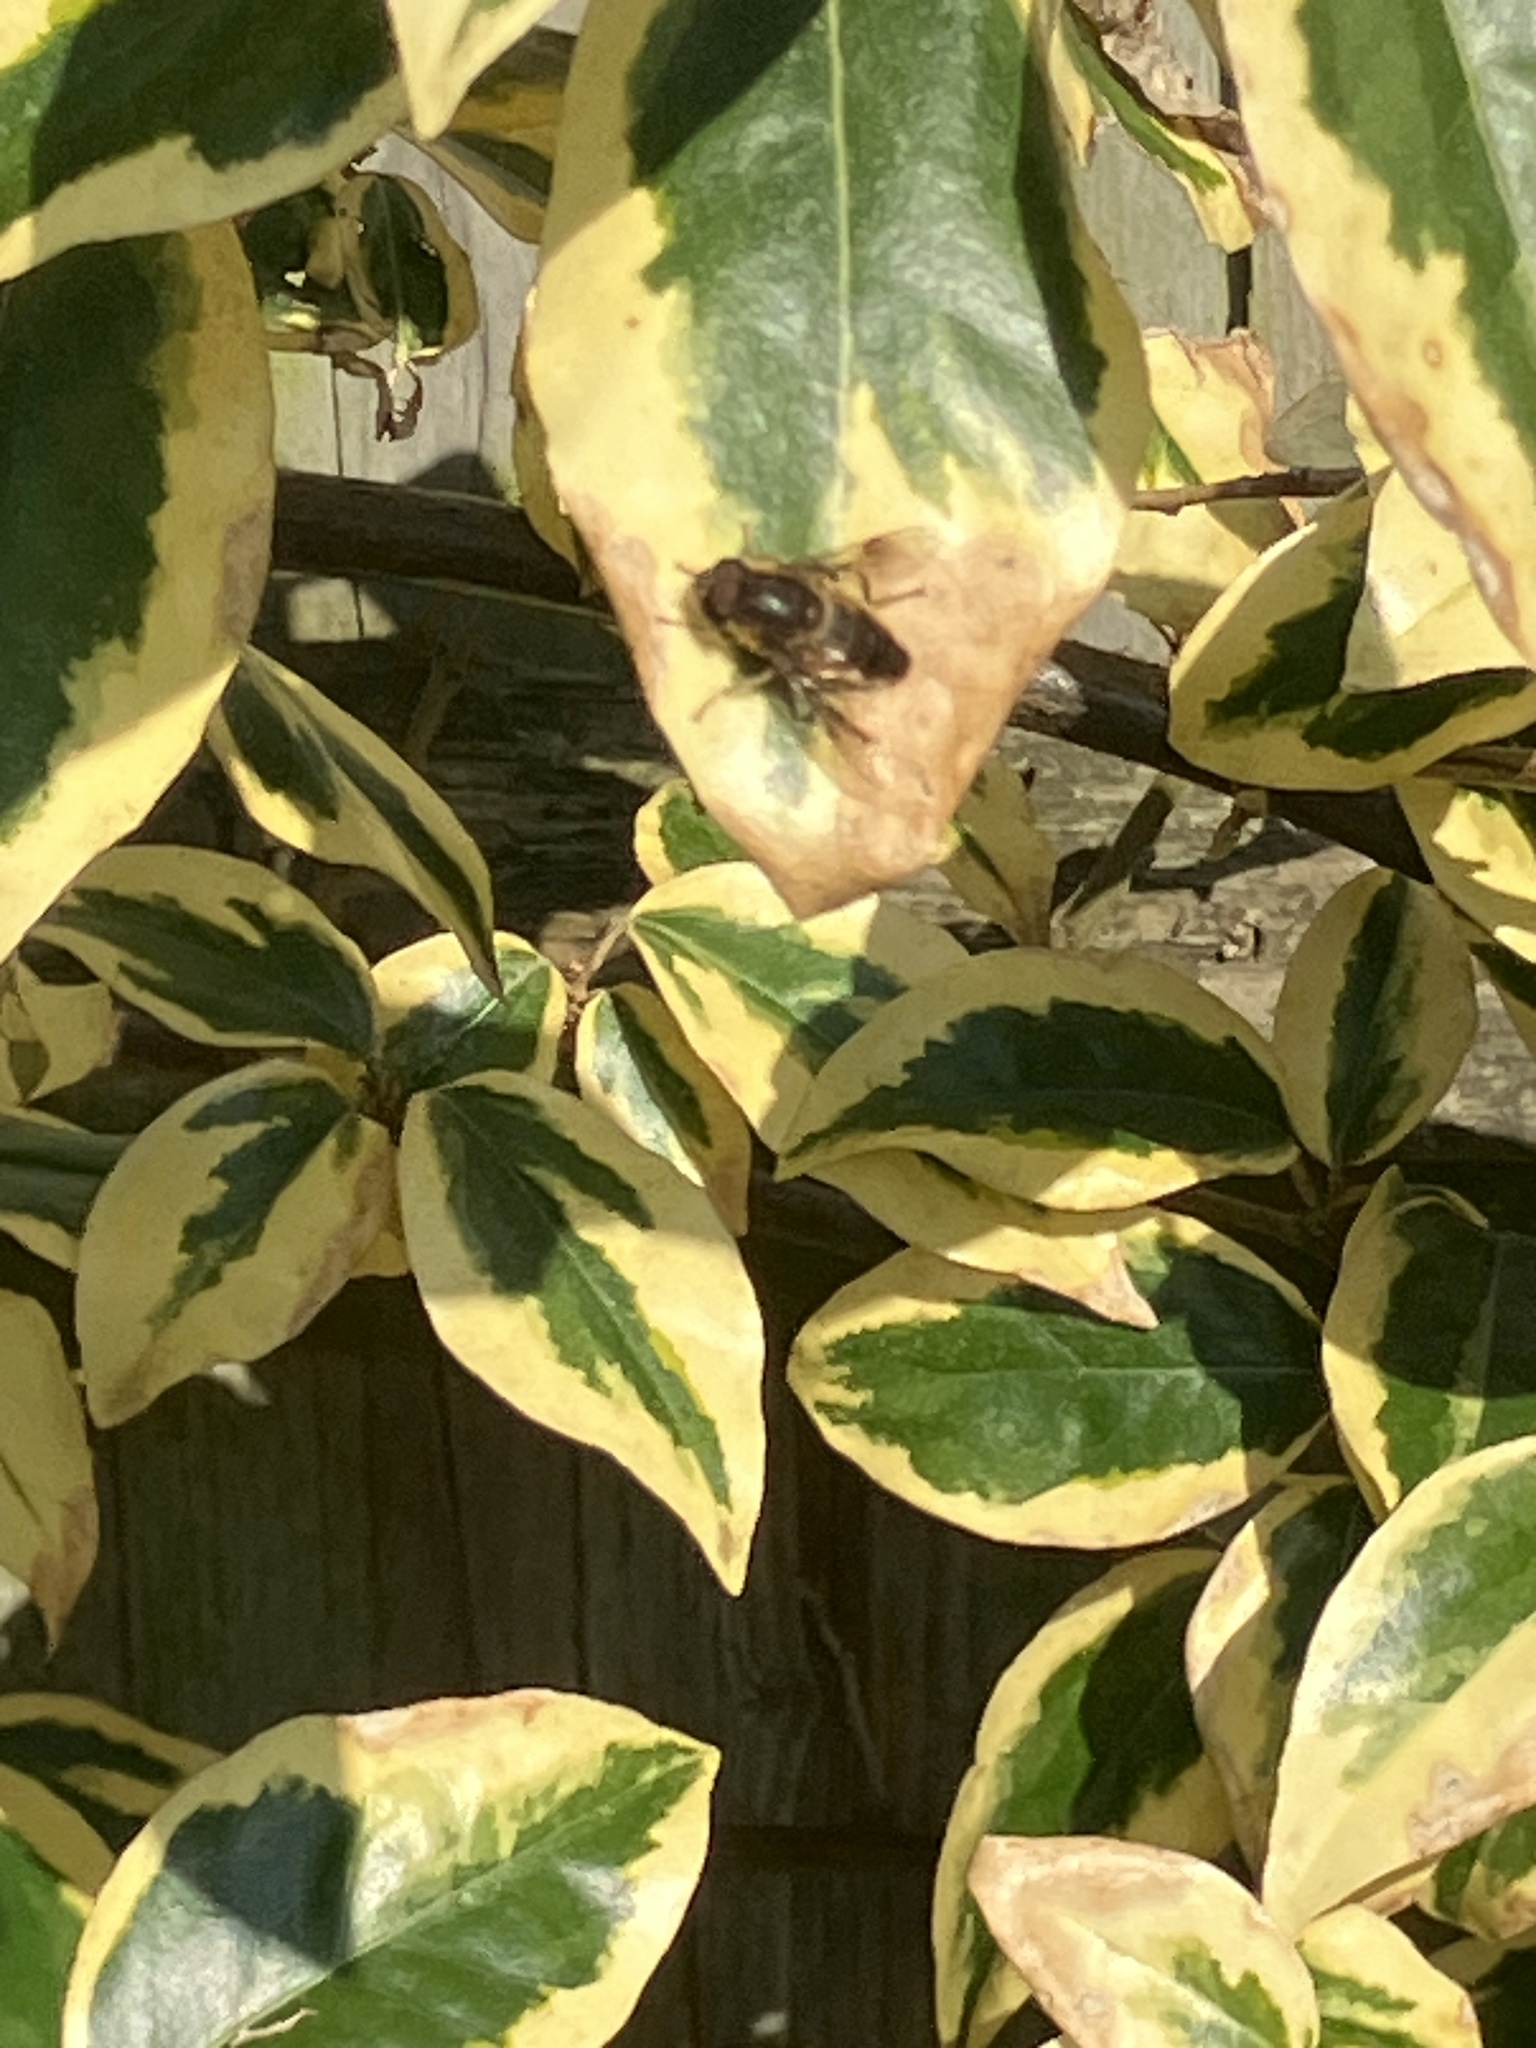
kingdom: Animalia
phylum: Arthropoda
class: Insecta
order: Diptera
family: Syrphidae
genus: Eristalis
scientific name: Eristalis pertinax
